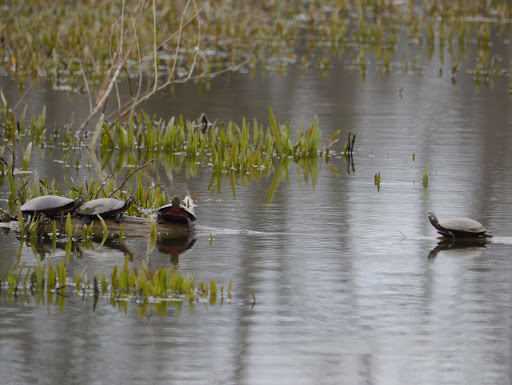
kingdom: Animalia
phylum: Chordata
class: Testudines
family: Emydidae
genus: Chrysemys
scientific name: Chrysemys picta
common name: Painted turtle
